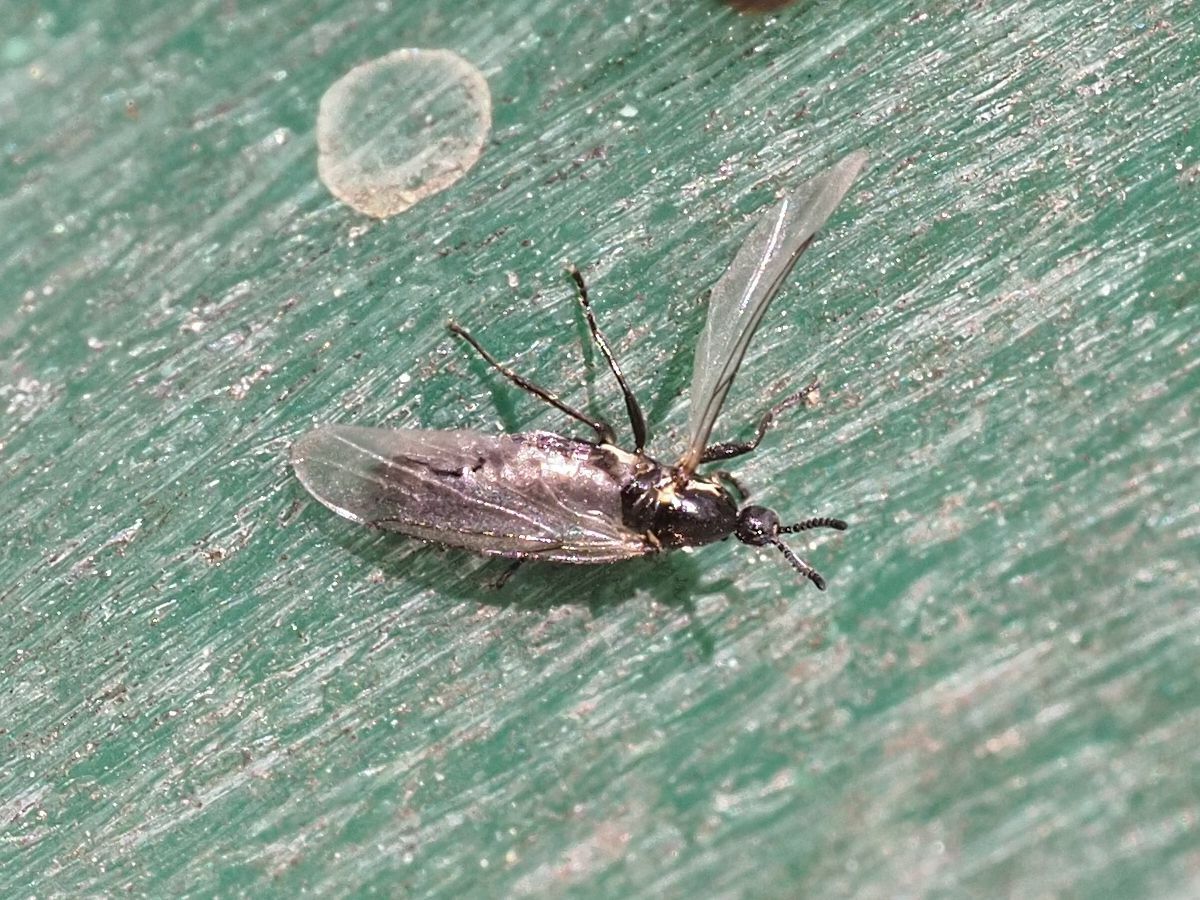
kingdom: Animalia
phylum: Arthropoda
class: Insecta
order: Diptera
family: Scatopsidae
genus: Scatopse
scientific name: Scatopse notata
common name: Minute black scavenger fly
